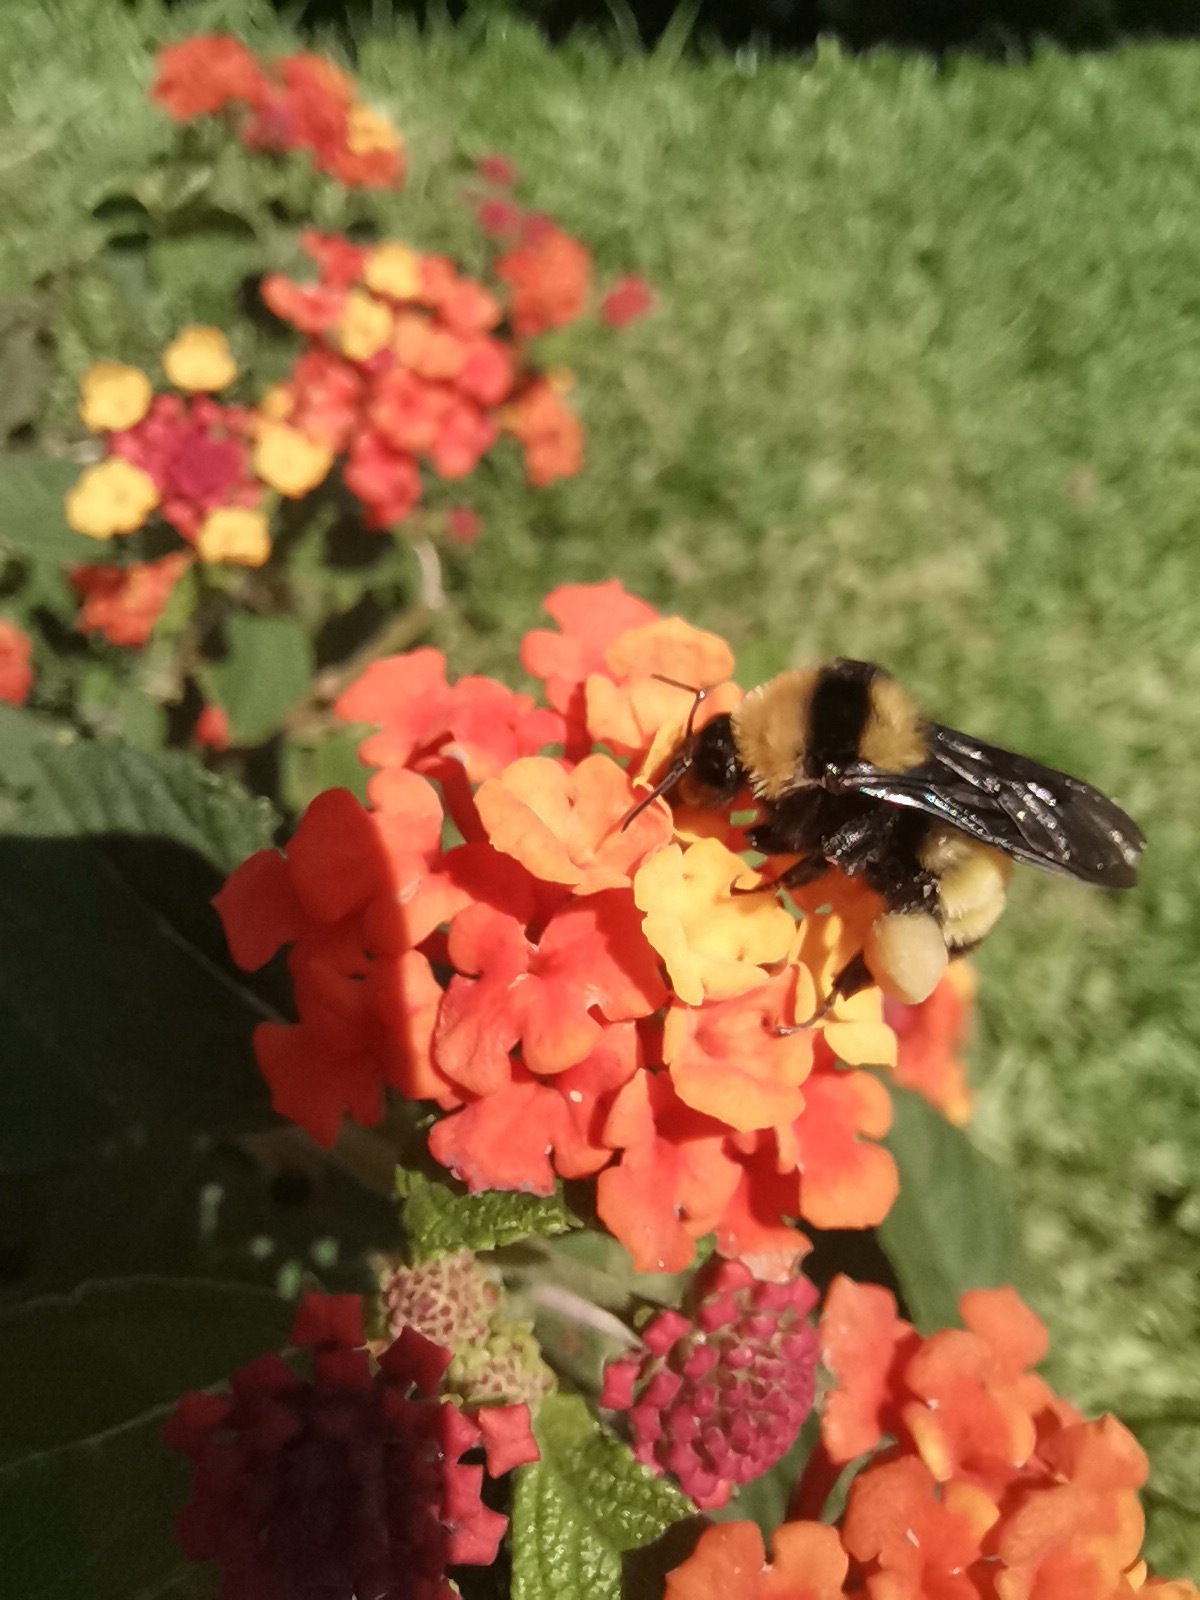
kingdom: Animalia
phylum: Arthropoda
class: Insecta
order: Hymenoptera
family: Apidae
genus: Bombus
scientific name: Bombus sonorus
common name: Sonoran bumble bee
